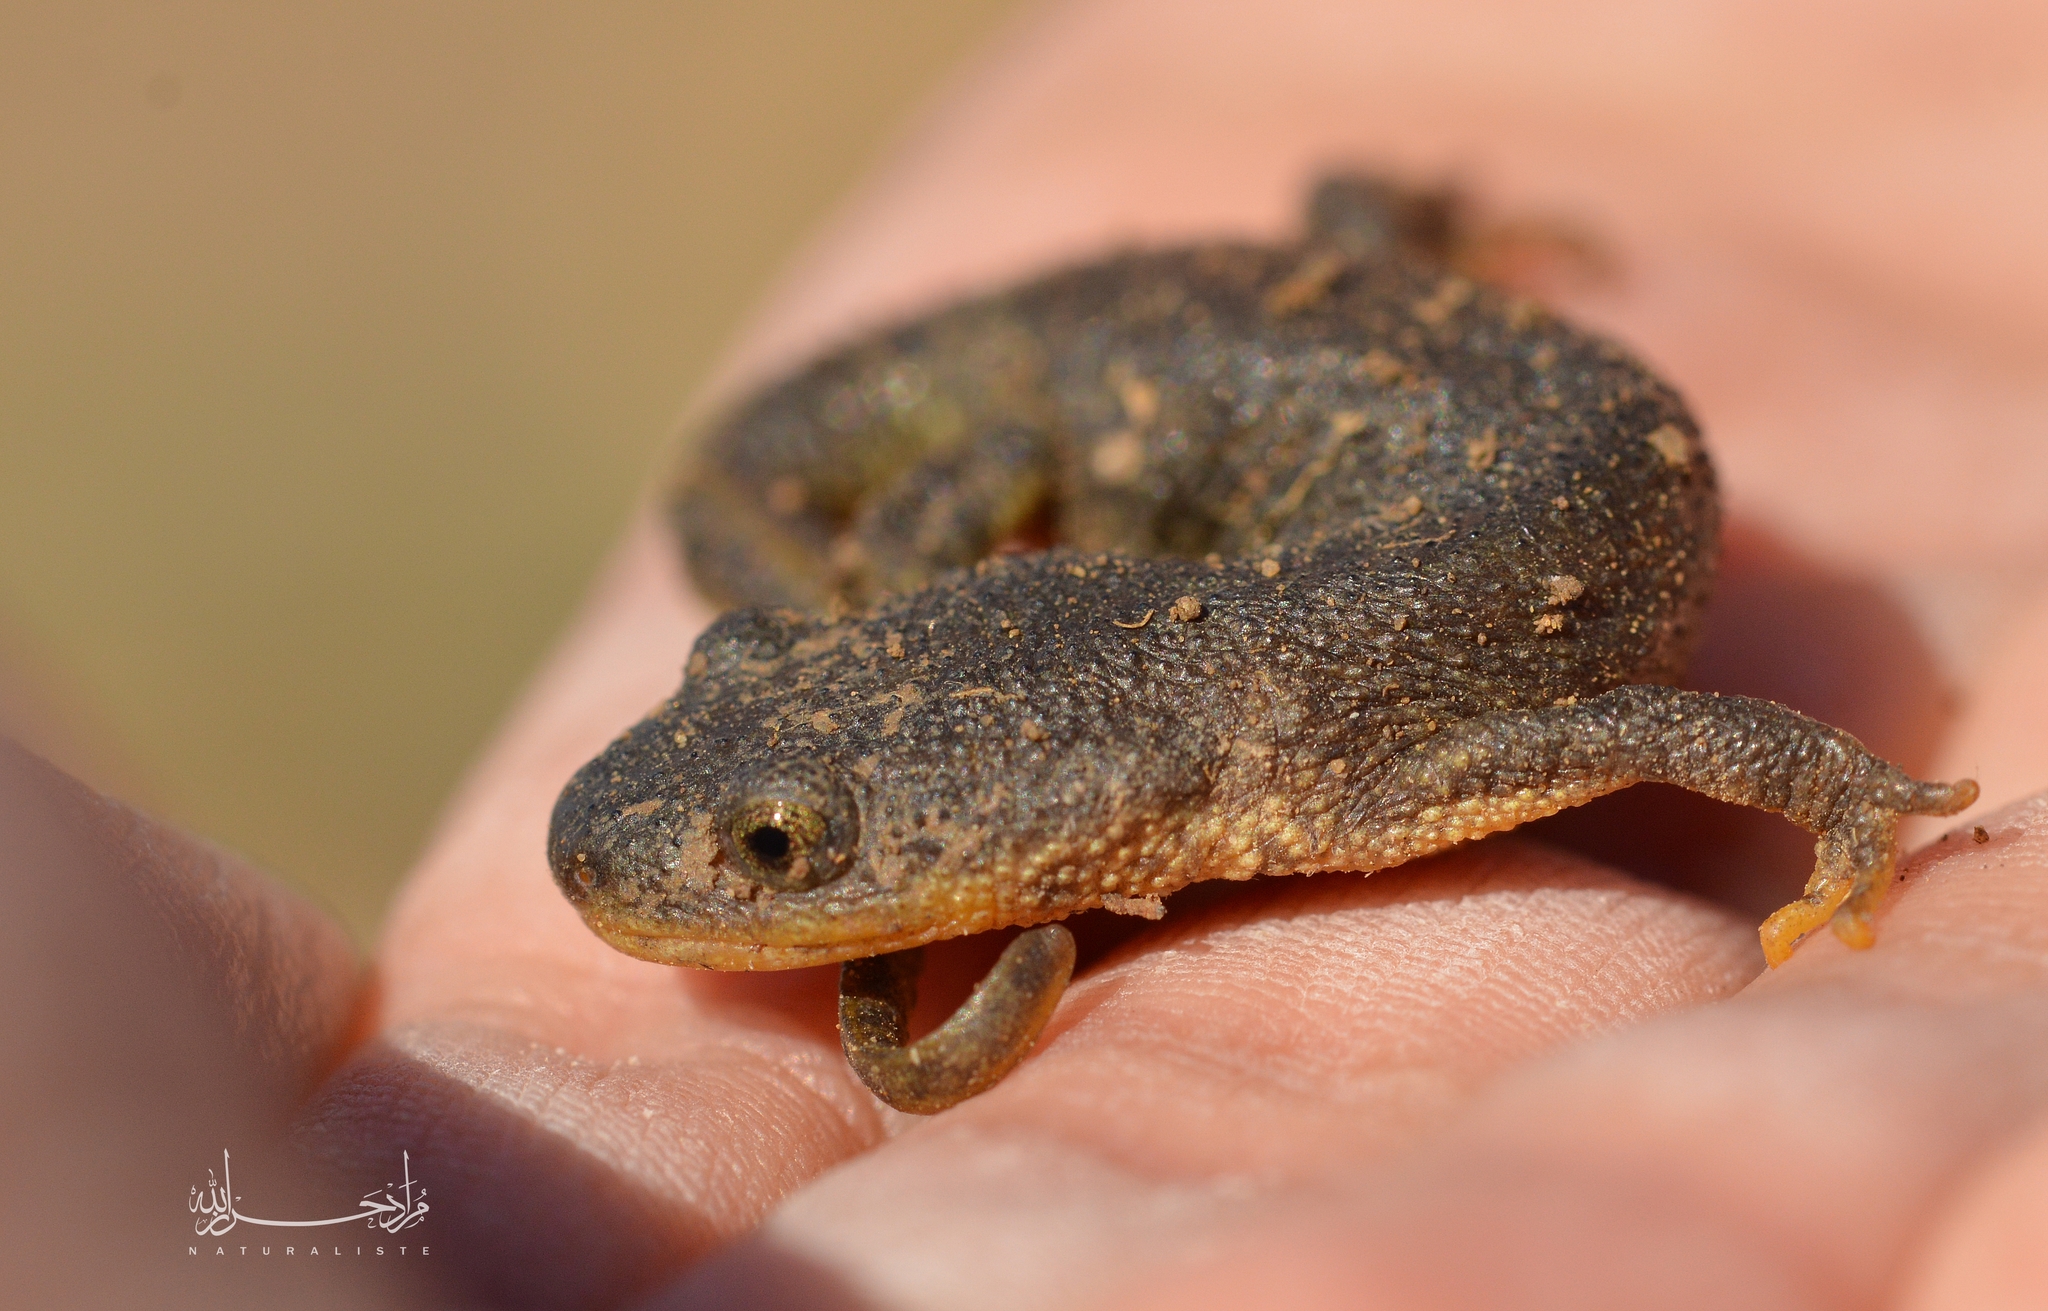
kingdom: Animalia
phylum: Chordata
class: Amphibia
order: Caudata
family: Salamandridae
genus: Pleurodeles
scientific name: Pleurodeles nebulosus
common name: Algerian ribbed newt
